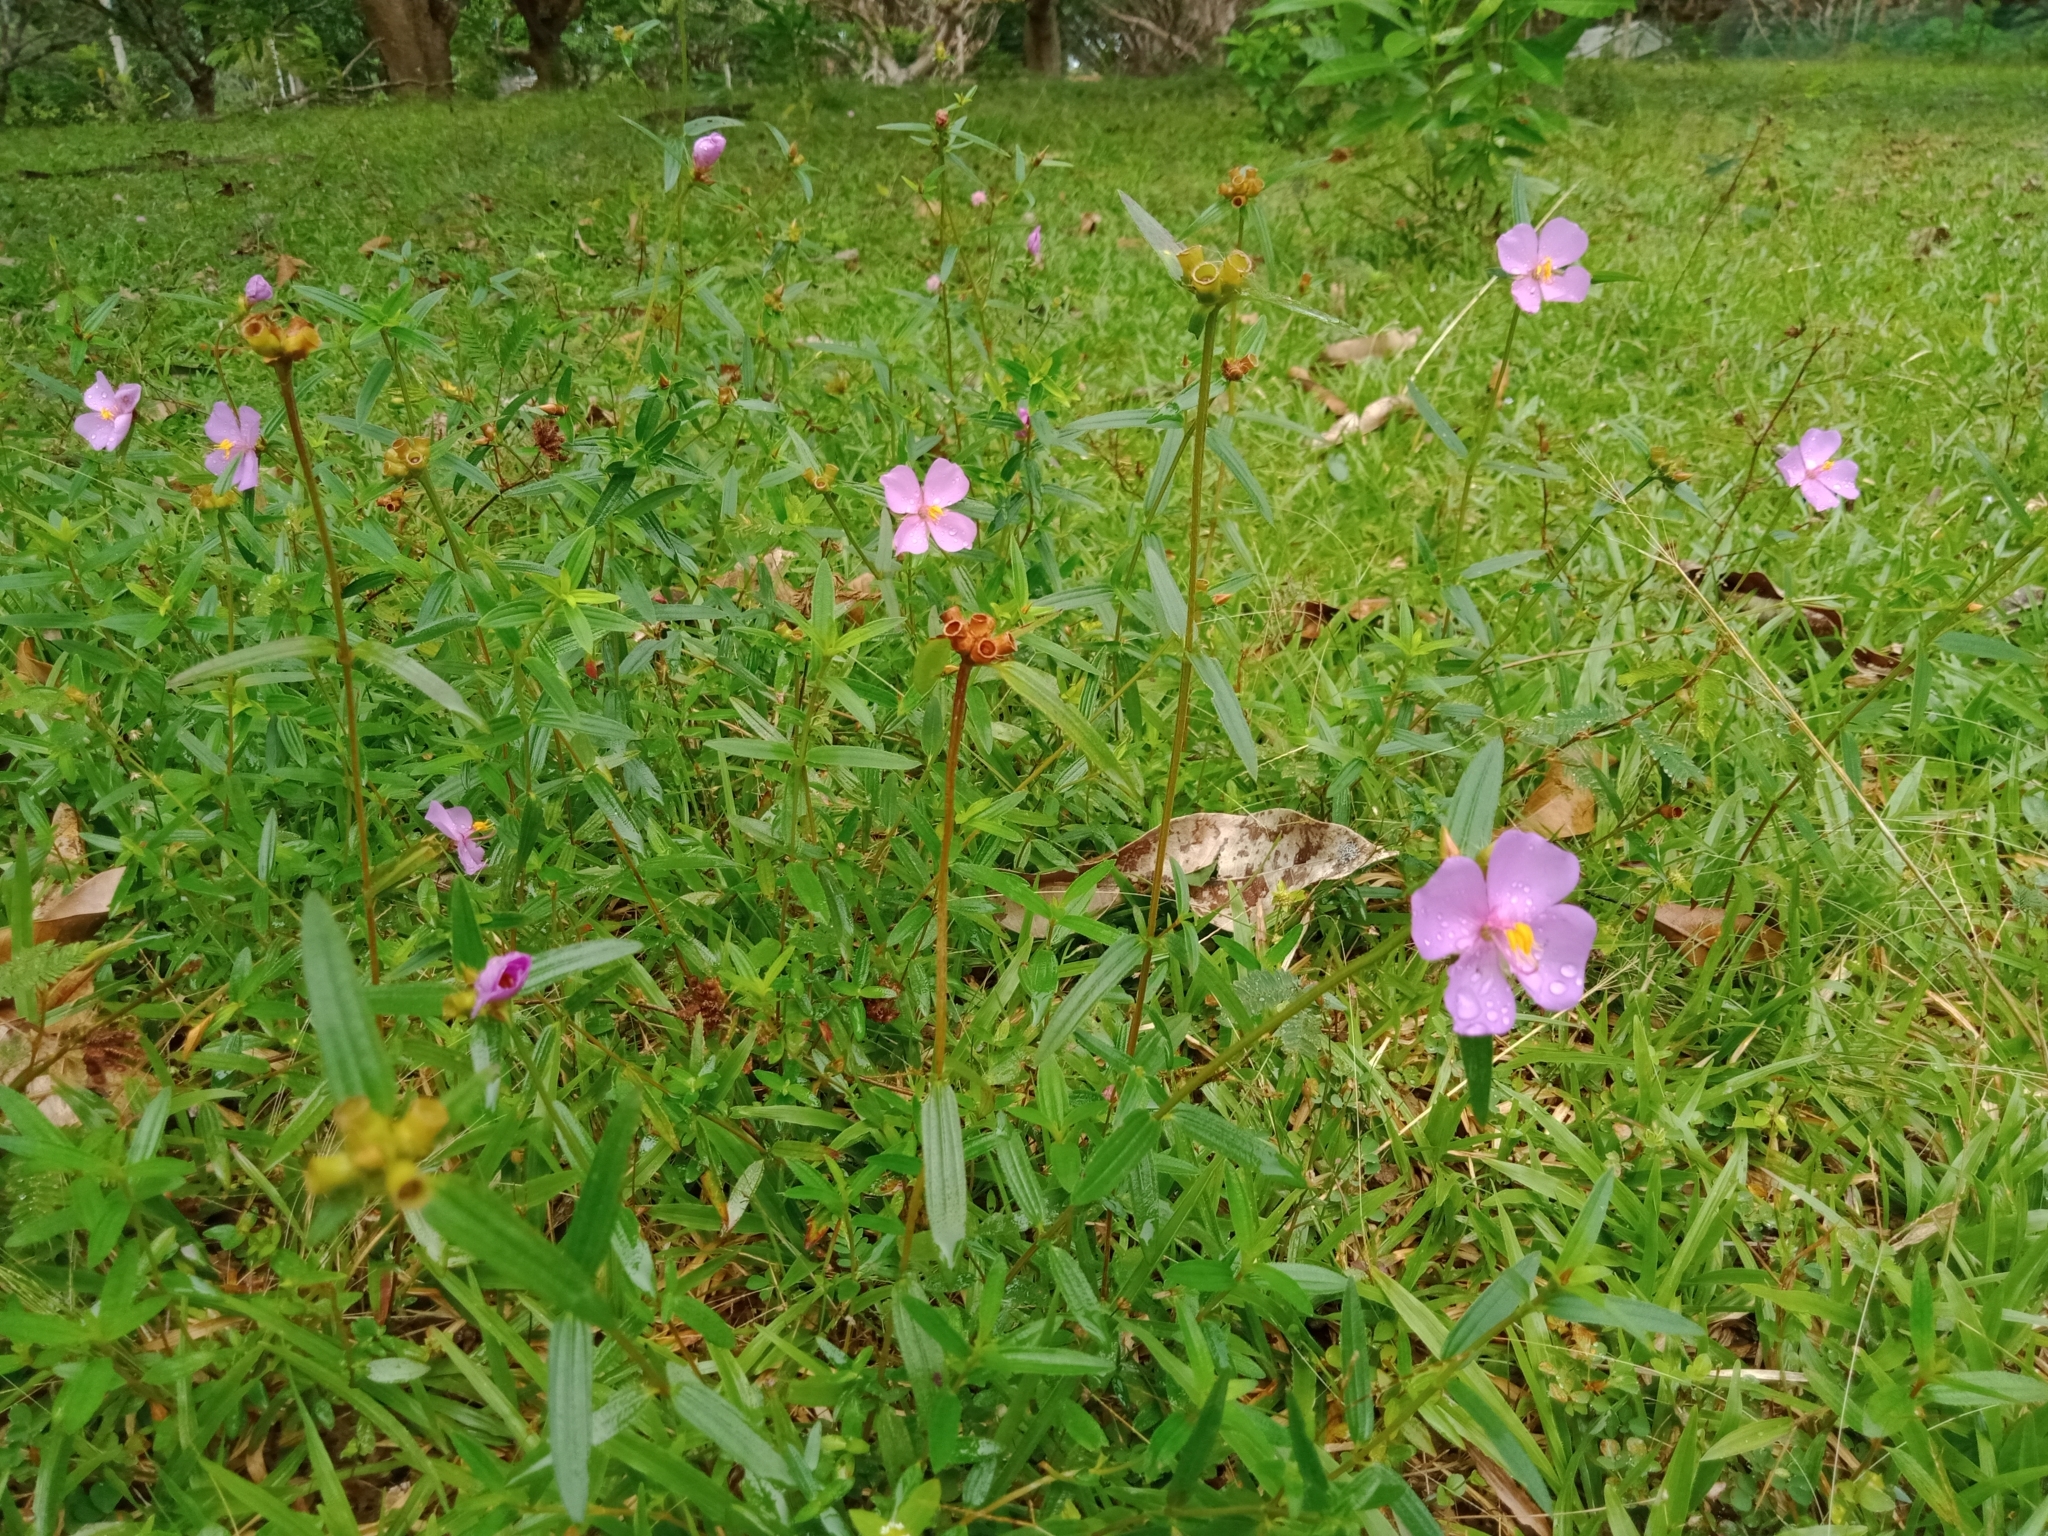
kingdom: Plantae
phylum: Tracheophyta
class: Magnoliopsida
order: Myrtales
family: Melastomataceae
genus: Osbeckia
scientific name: Osbeckia chinensis
